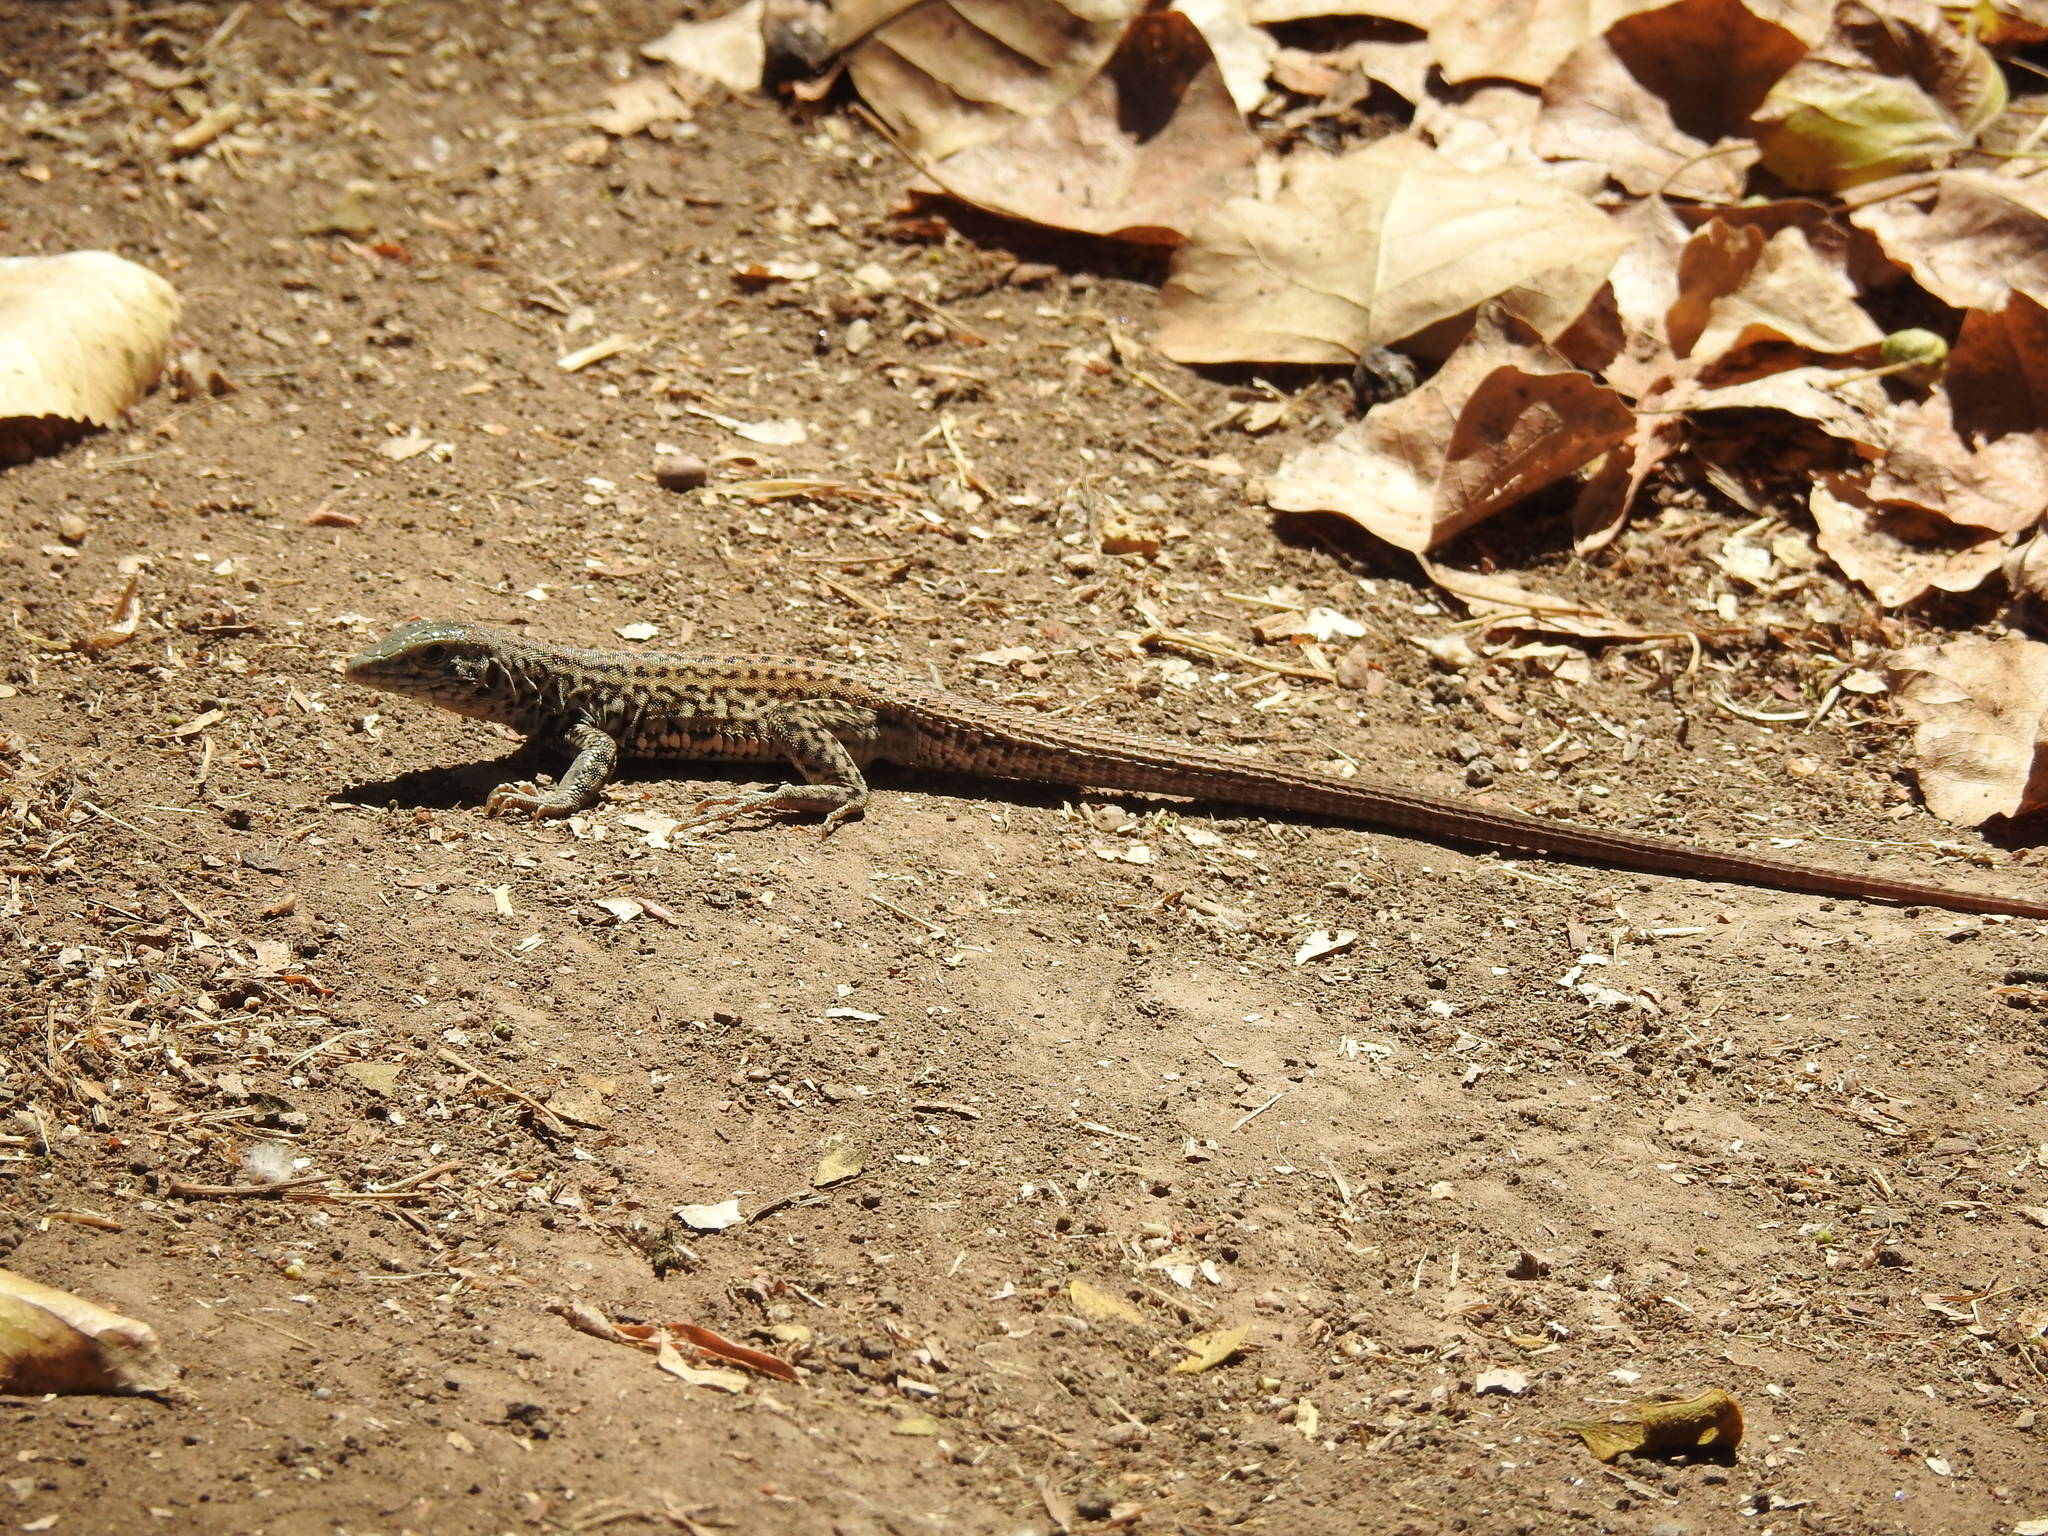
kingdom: Animalia
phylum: Chordata
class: Squamata
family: Teiidae
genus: Aspidoscelis
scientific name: Aspidoscelis tigris
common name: Tiger whiptail
